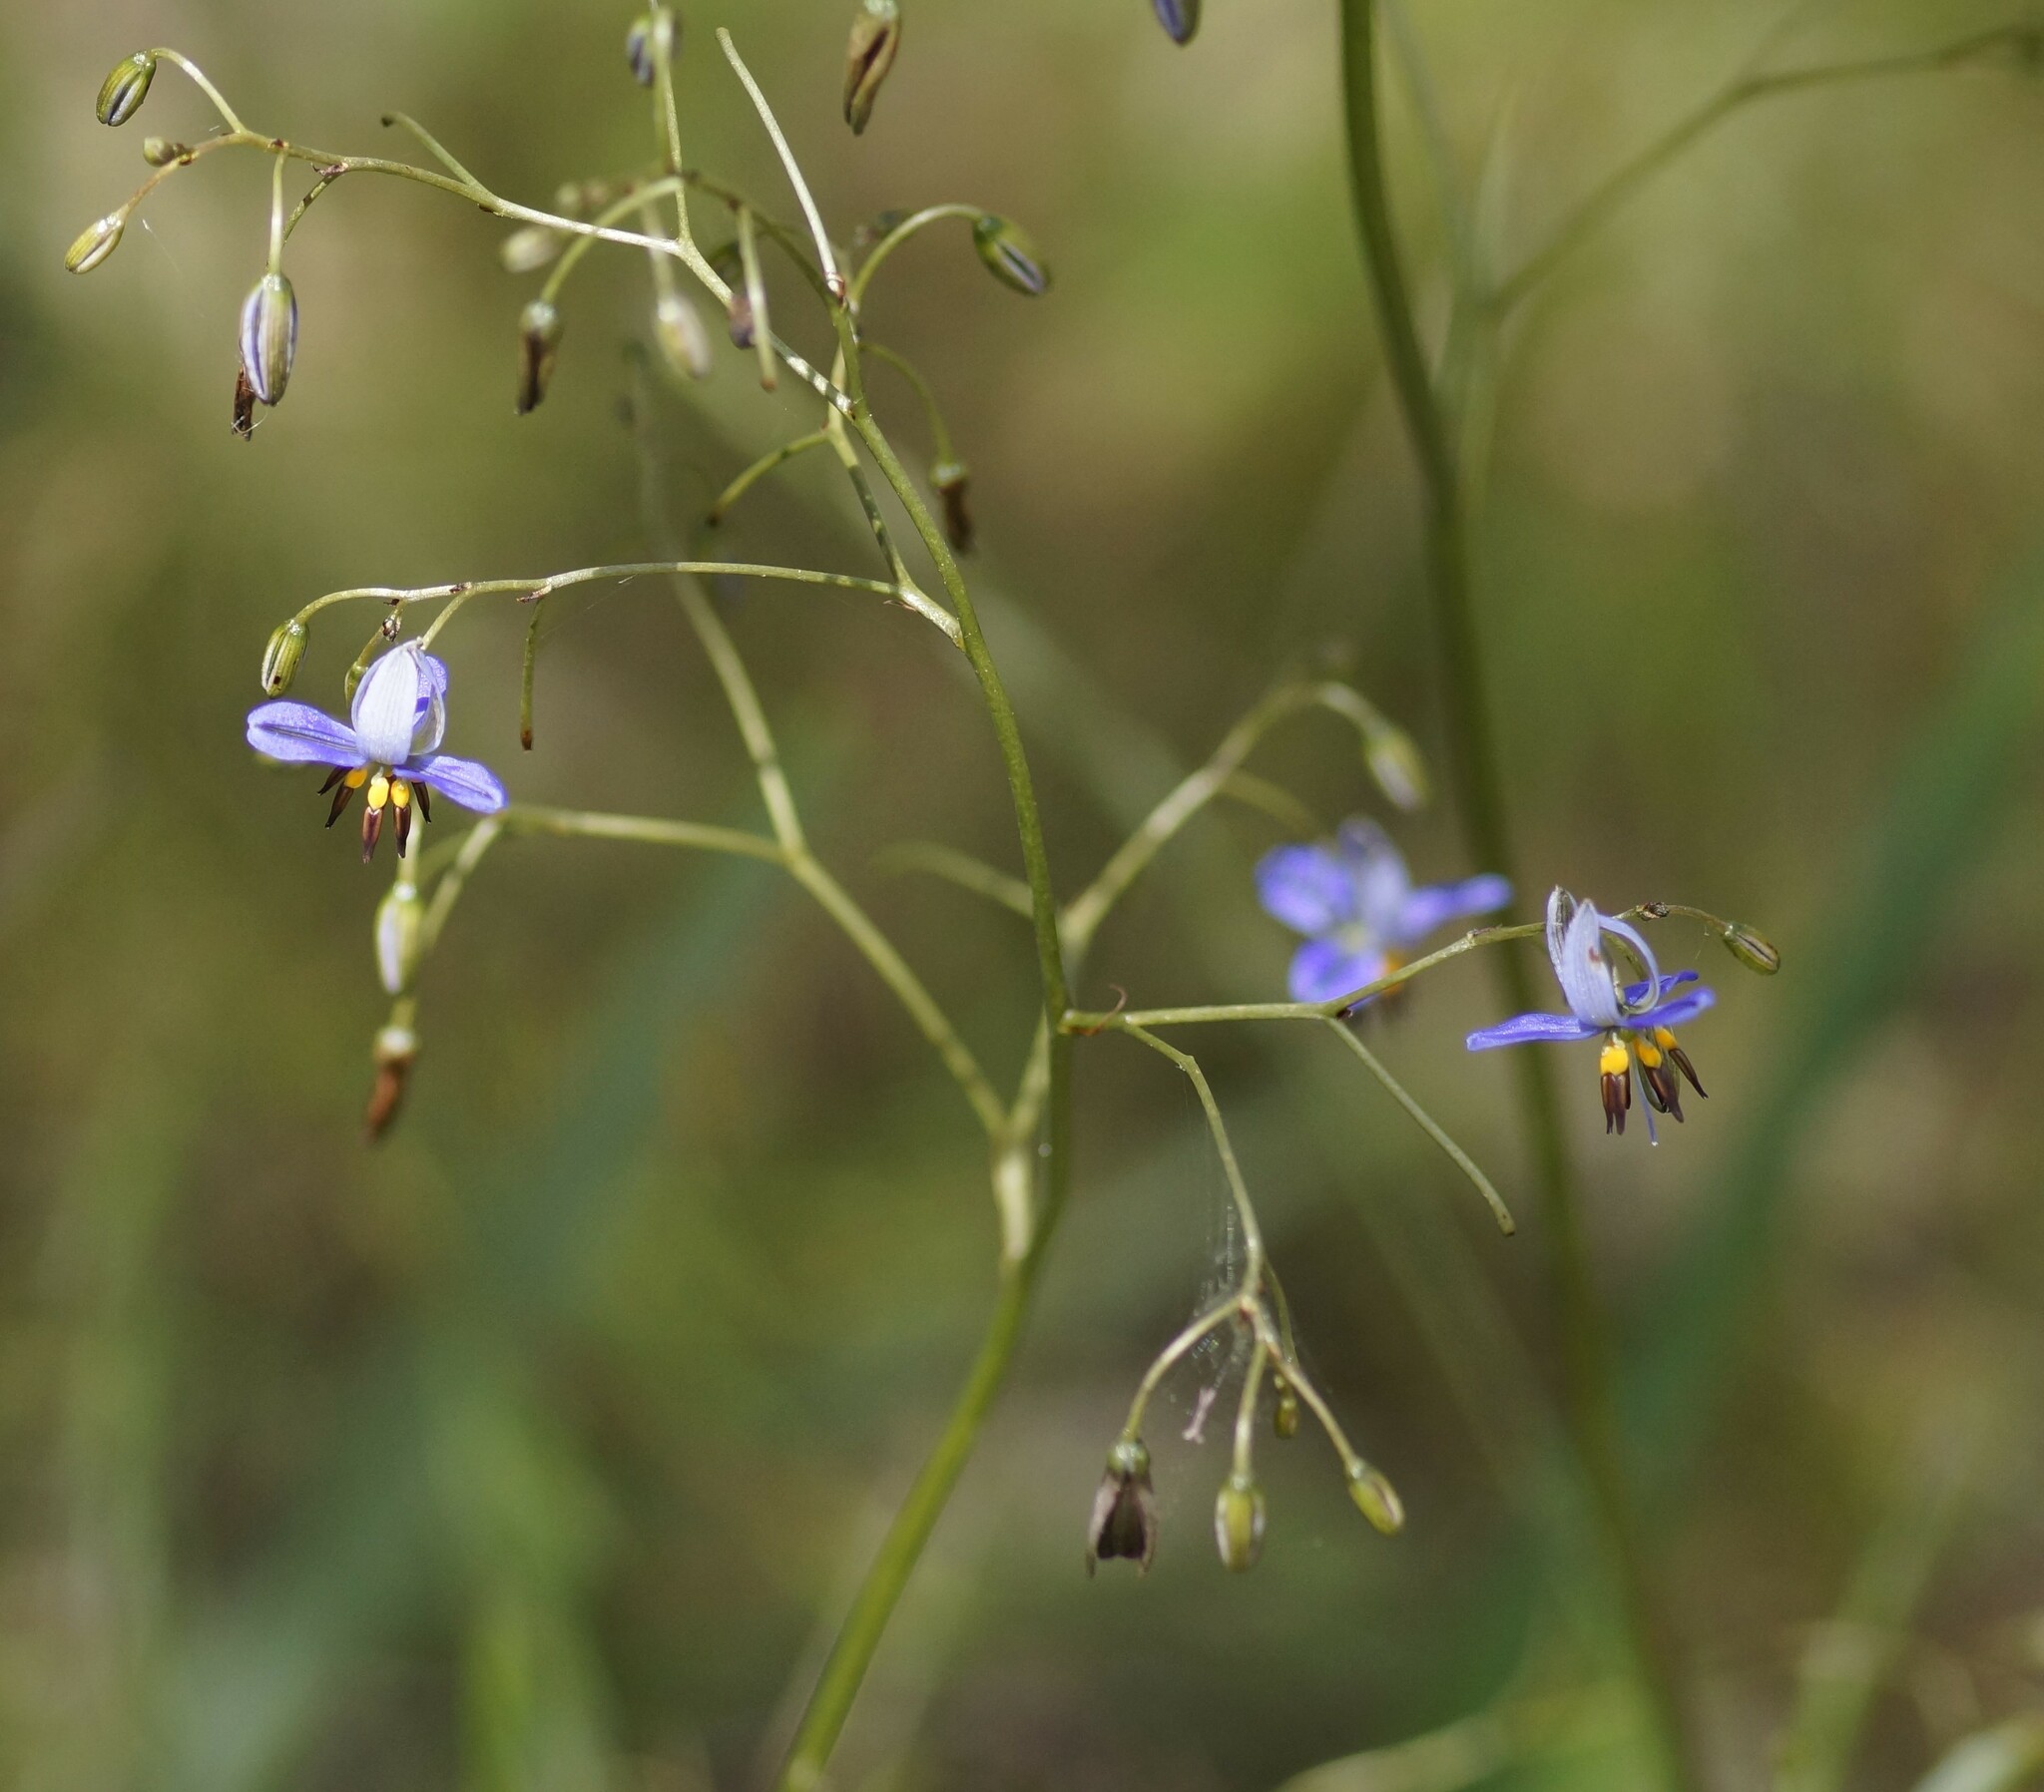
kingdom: Plantae
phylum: Tracheophyta
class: Liliopsida
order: Asparagales
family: Asphodelaceae
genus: Dianella
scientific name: Dianella revoluta
